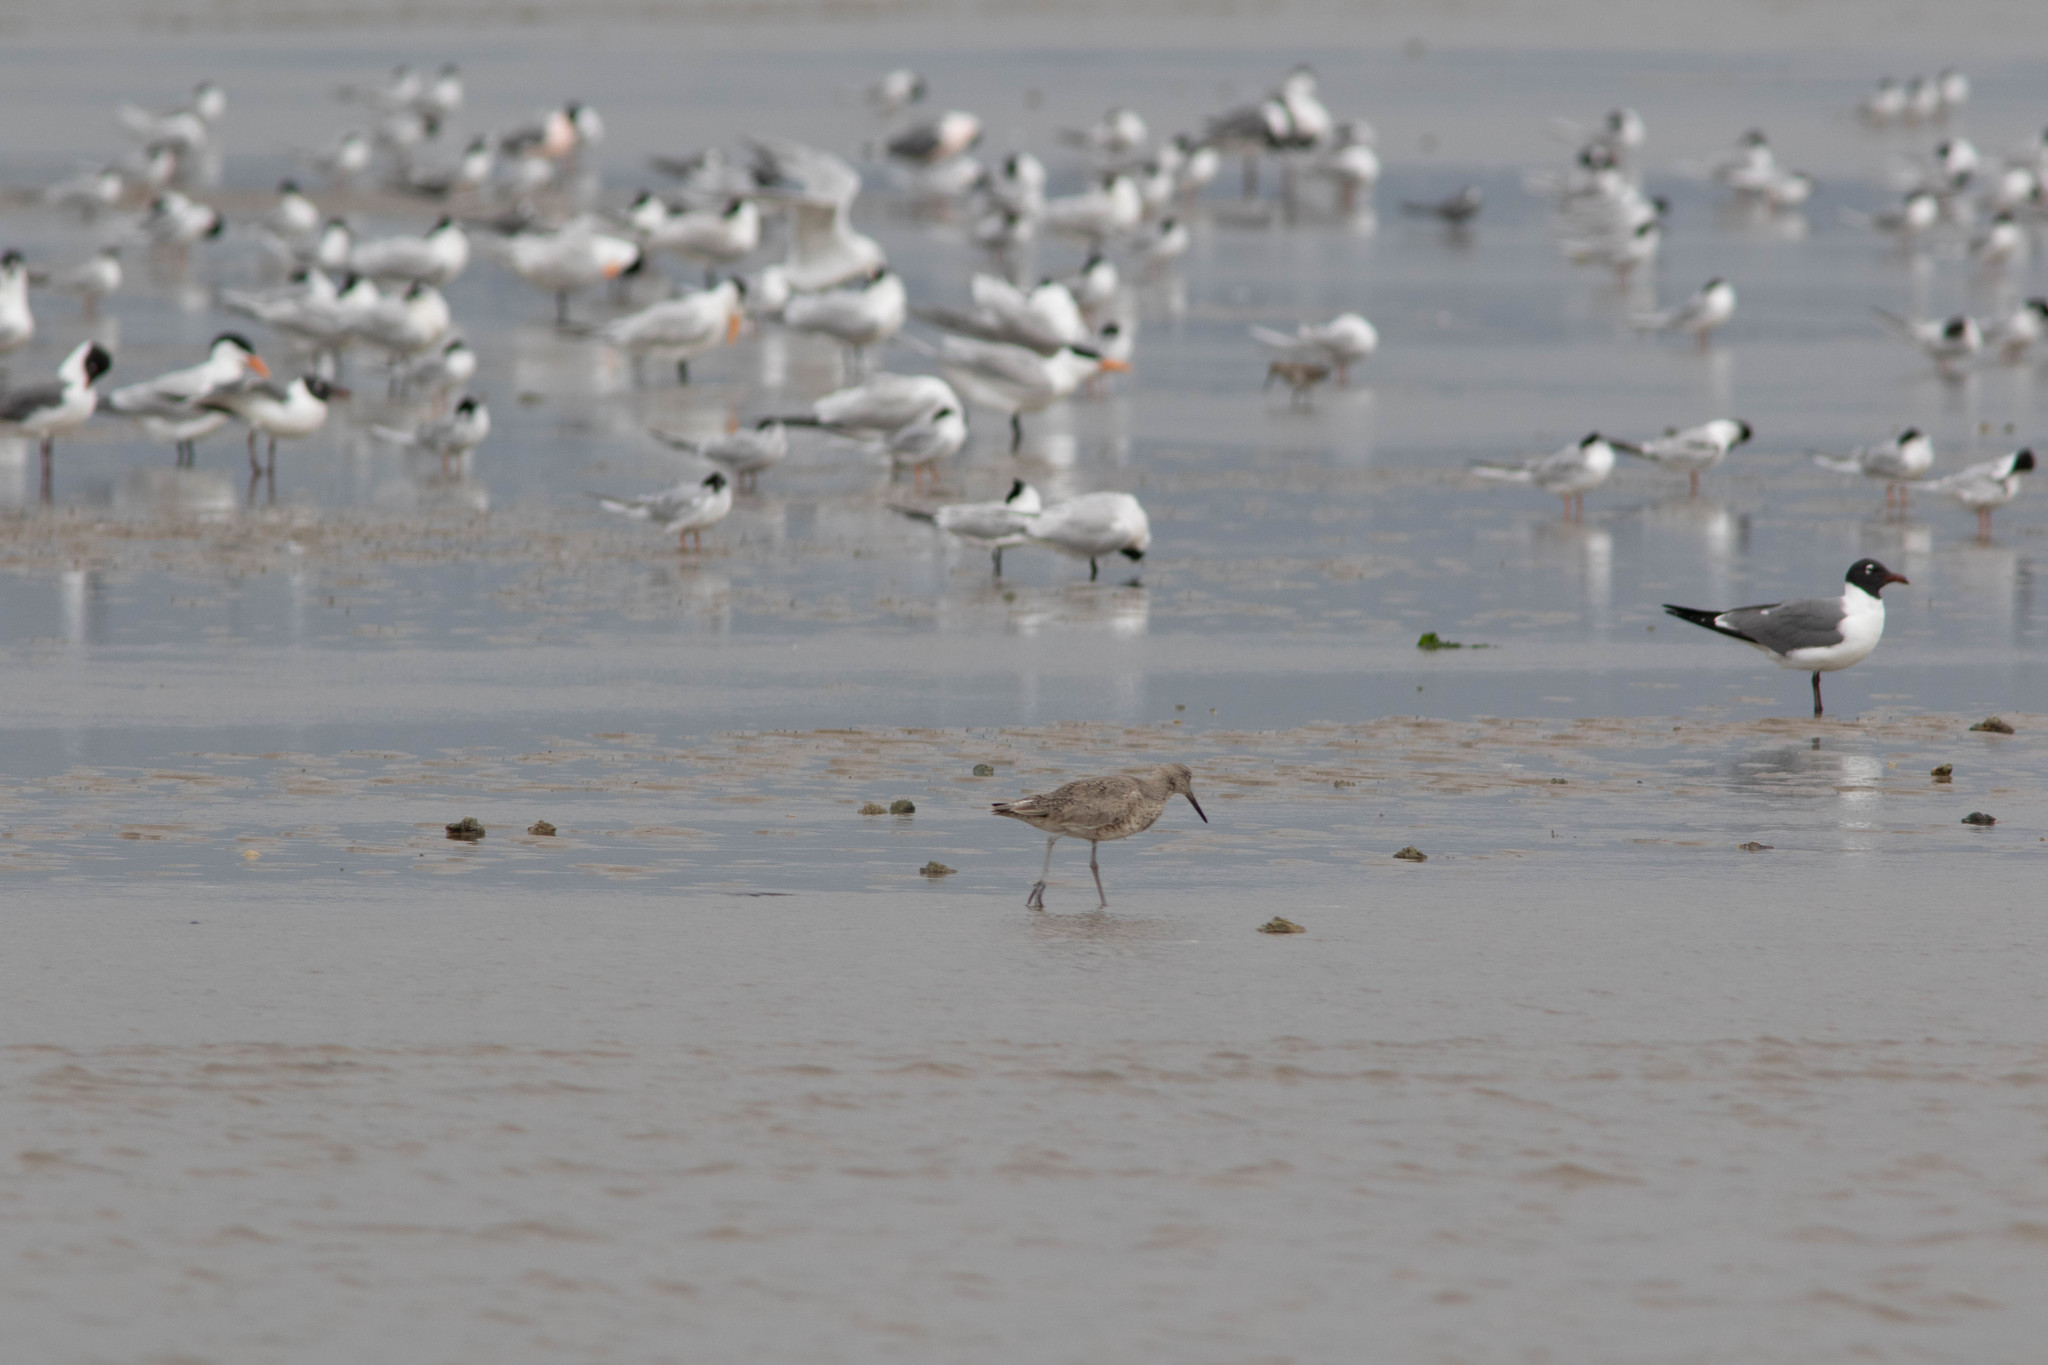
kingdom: Animalia
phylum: Chordata
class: Aves
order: Charadriiformes
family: Scolopacidae
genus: Tringa
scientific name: Tringa semipalmata
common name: Willet
